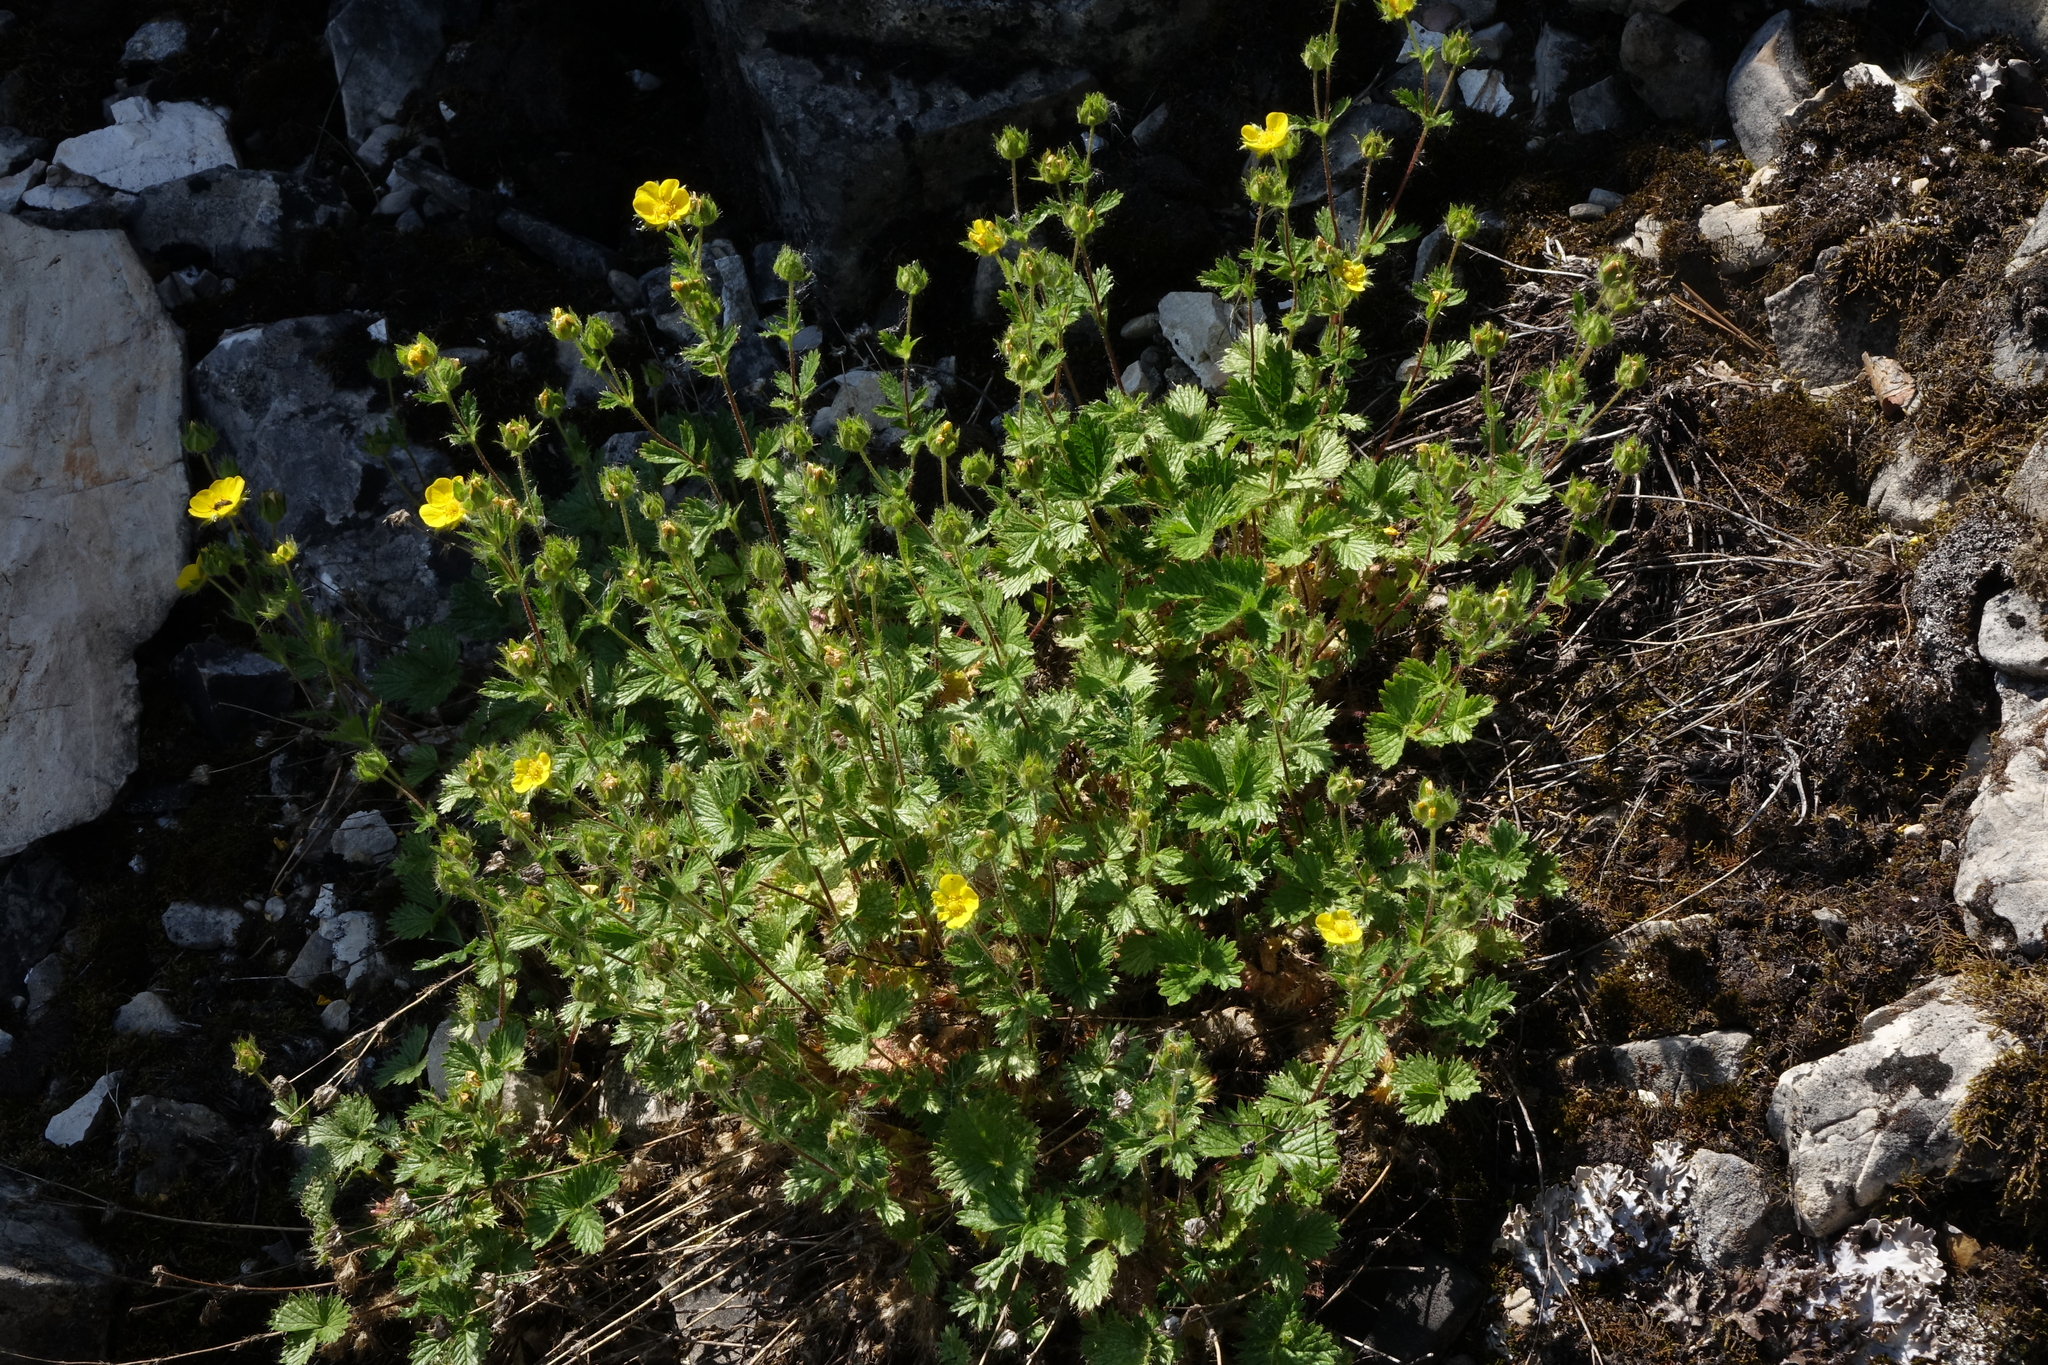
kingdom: Plantae
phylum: Tracheophyta
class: Magnoliopsida
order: Rosales
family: Rosaceae
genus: Potentilla
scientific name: Potentilla asperrima
